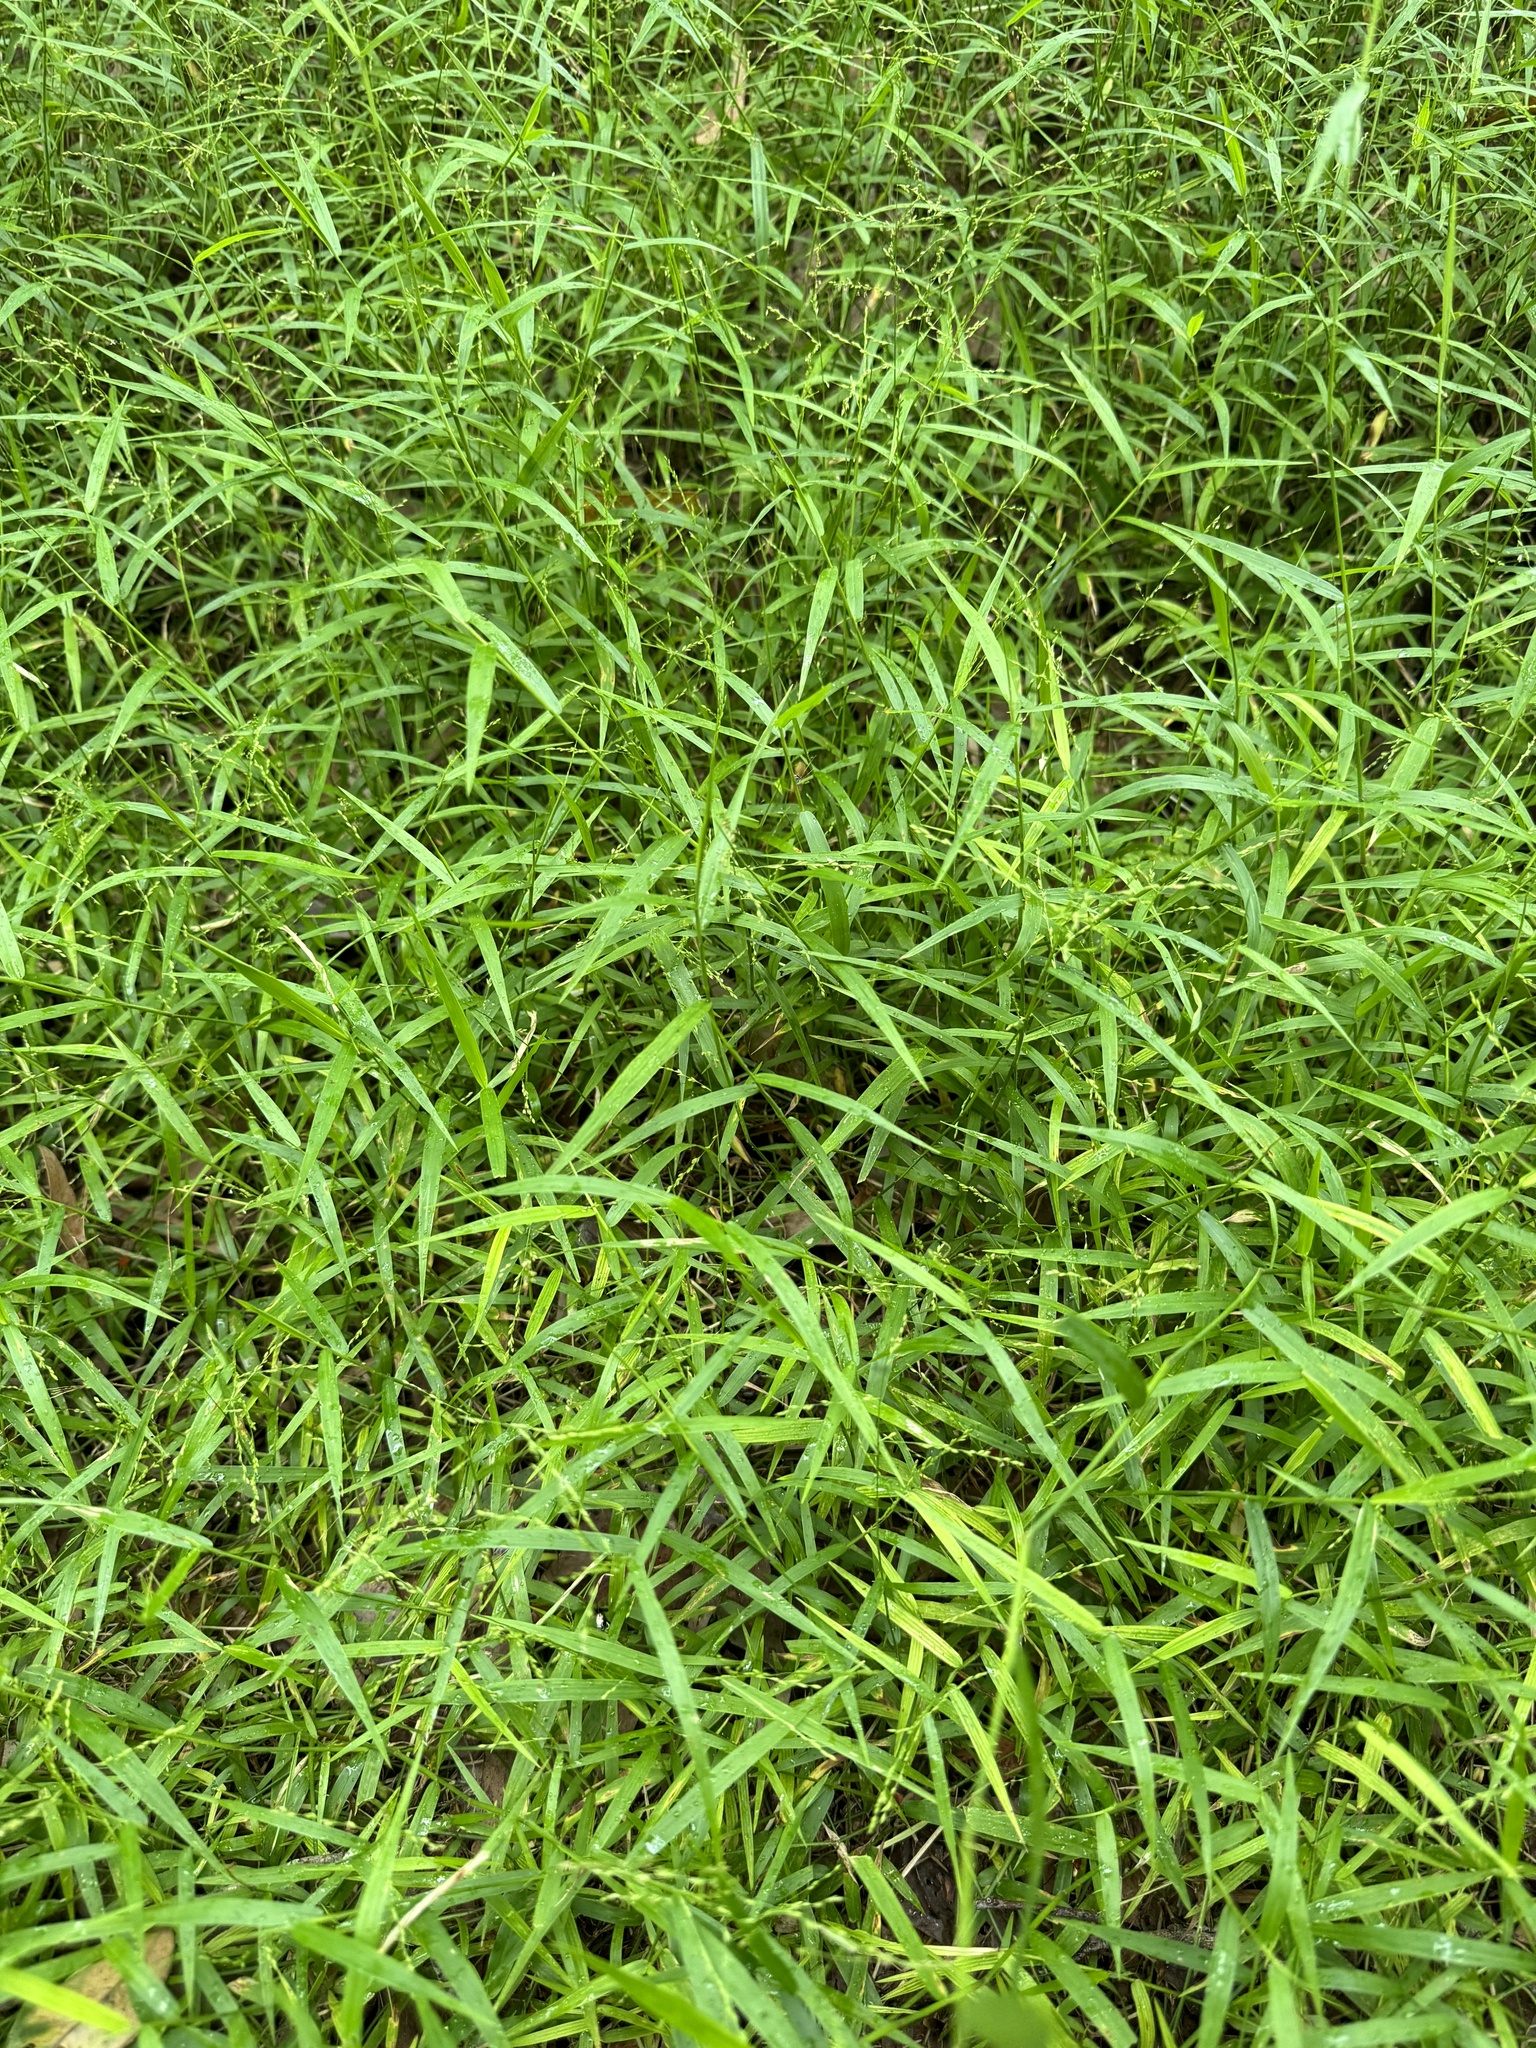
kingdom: Plantae
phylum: Tracheophyta
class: Liliopsida
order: Poales
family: Poaceae
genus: Ottochloa
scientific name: Ottochloa gracillima
